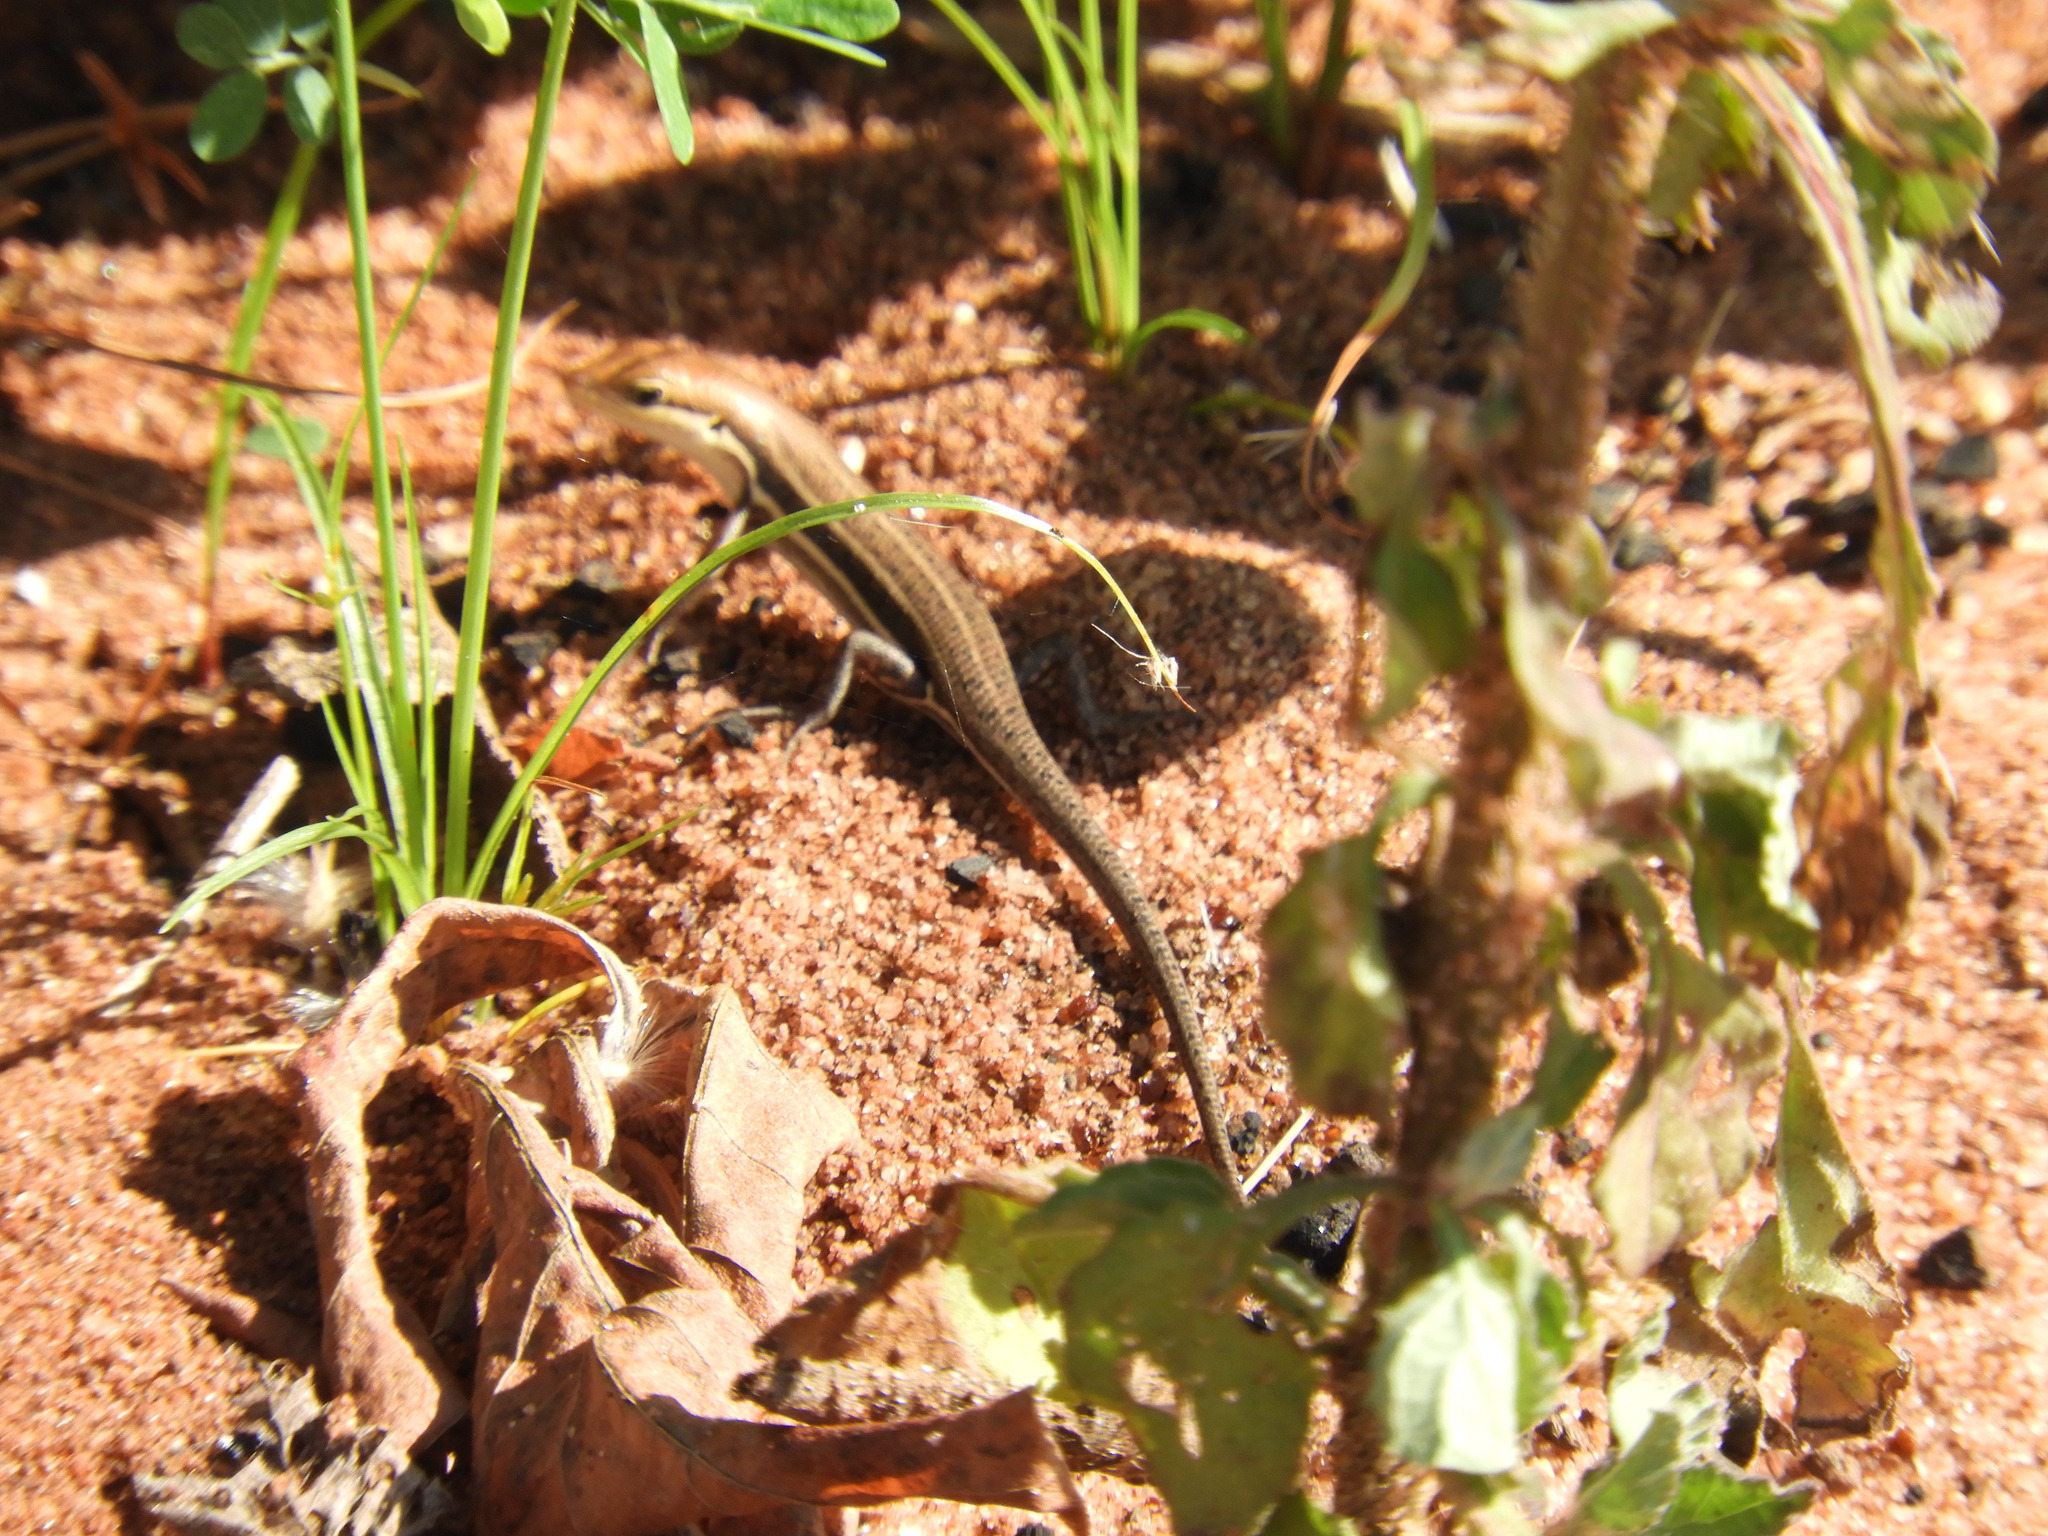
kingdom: Animalia
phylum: Chordata
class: Squamata
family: Scincidae
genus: Trachylepis
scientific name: Trachylepis varia
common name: Eastern variable skink
